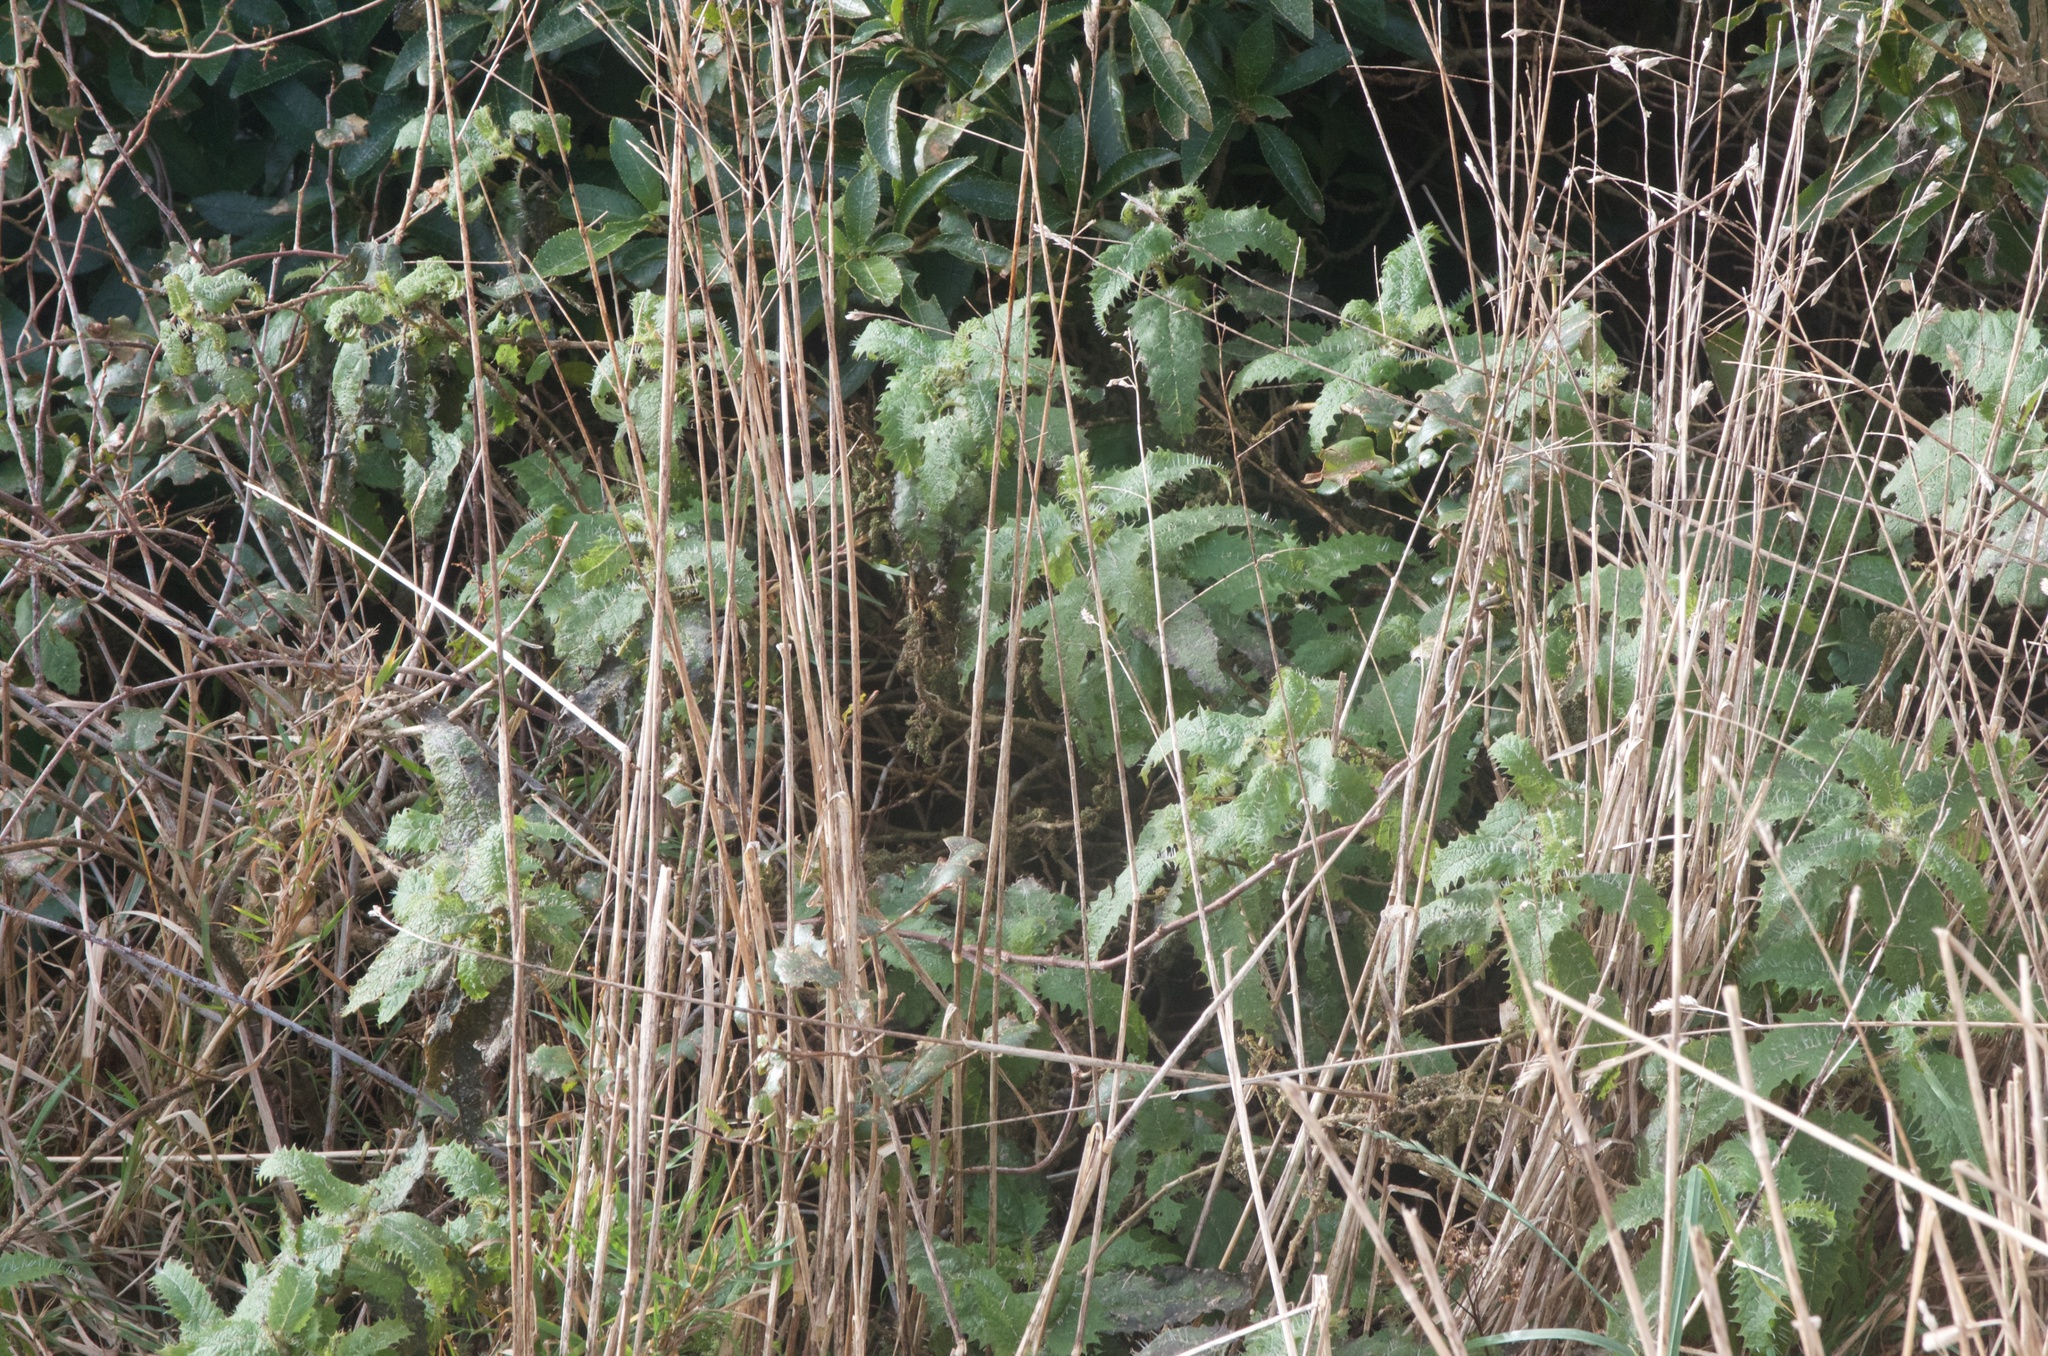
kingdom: Plantae
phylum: Tracheophyta
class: Magnoliopsida
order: Rosales
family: Urticaceae
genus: Urtica
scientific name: Urtica ferox
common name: Tree nettle
